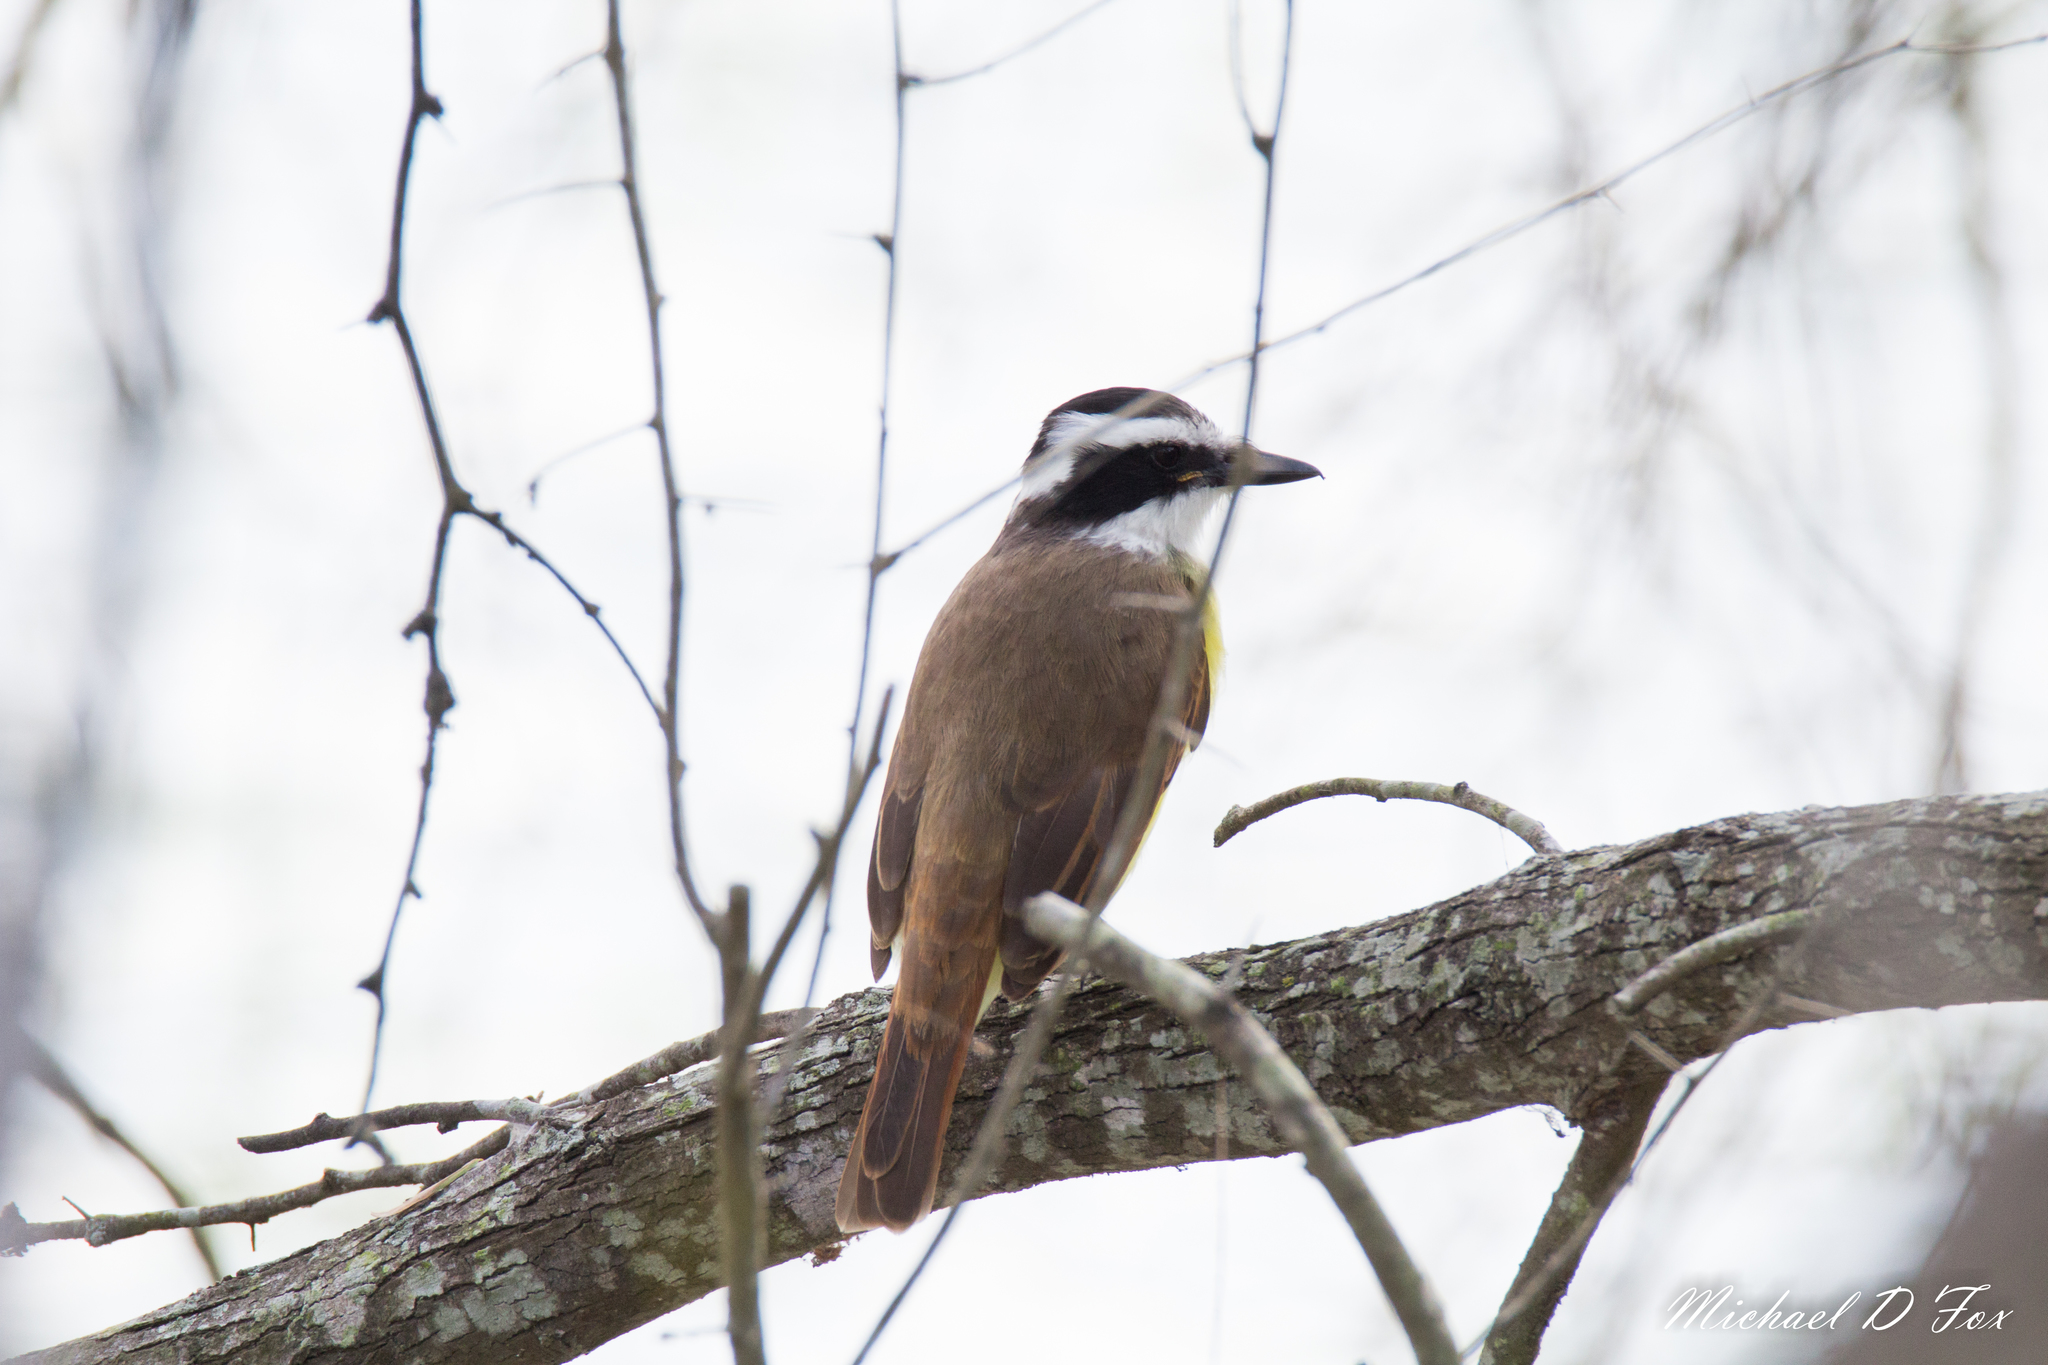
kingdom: Animalia
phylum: Chordata
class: Aves
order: Passeriformes
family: Tyrannidae
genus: Pitangus
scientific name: Pitangus sulphuratus
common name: Great kiskadee
